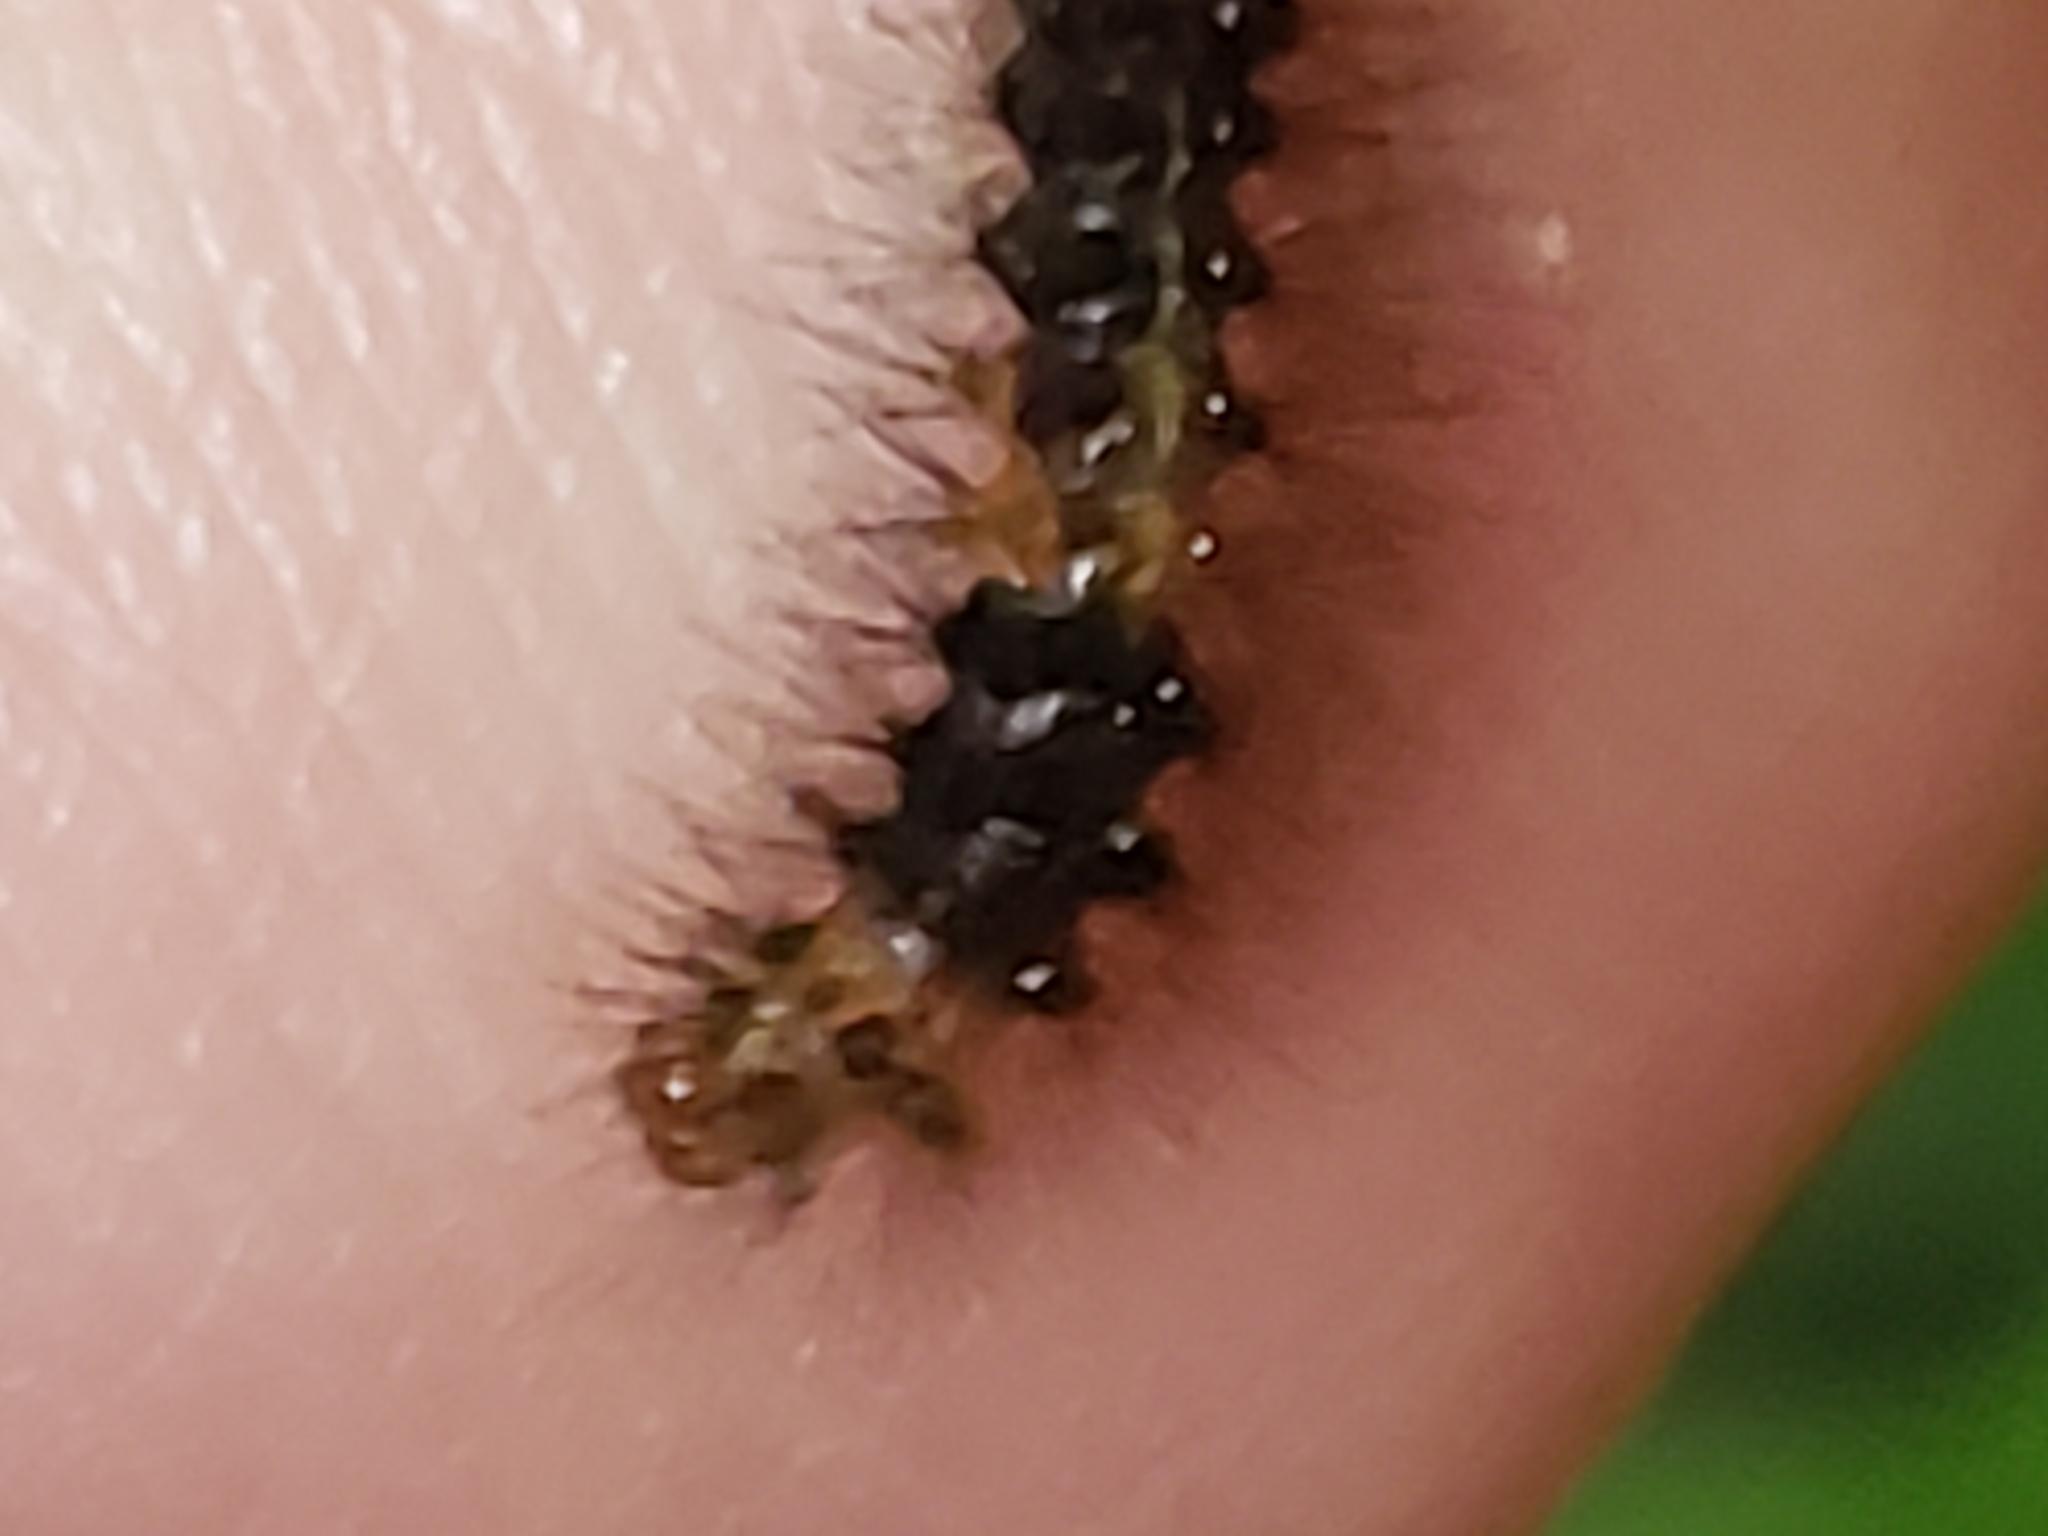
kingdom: Animalia
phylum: Arthropoda
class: Insecta
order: Lepidoptera
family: Erebidae
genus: Hypercompe
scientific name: Hypercompe scribonia
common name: Giant leopard moth
